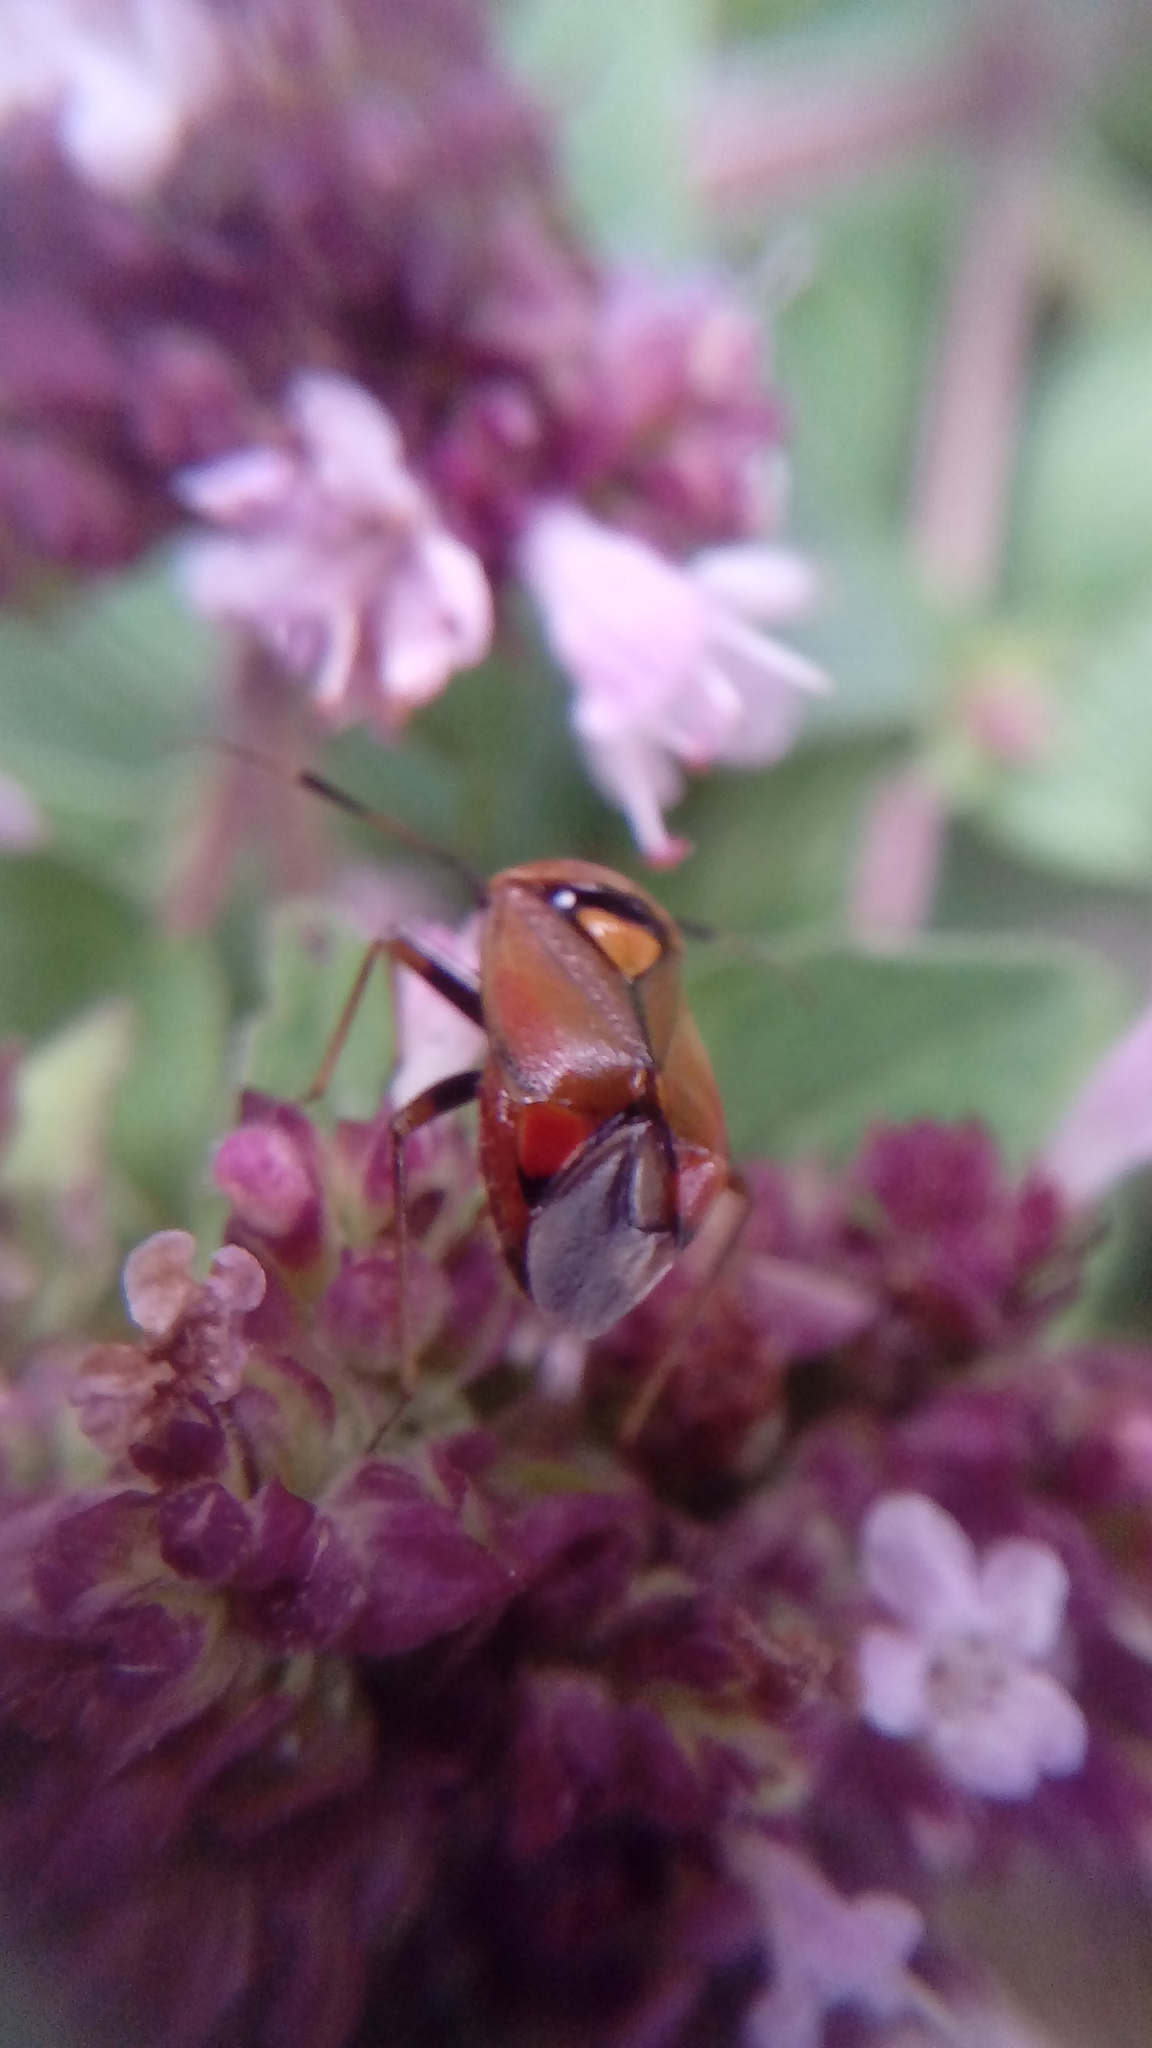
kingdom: Animalia
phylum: Arthropoda
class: Insecta
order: Hemiptera
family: Miridae
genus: Deraeocoris
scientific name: Deraeocoris ruber
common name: Plant bug
